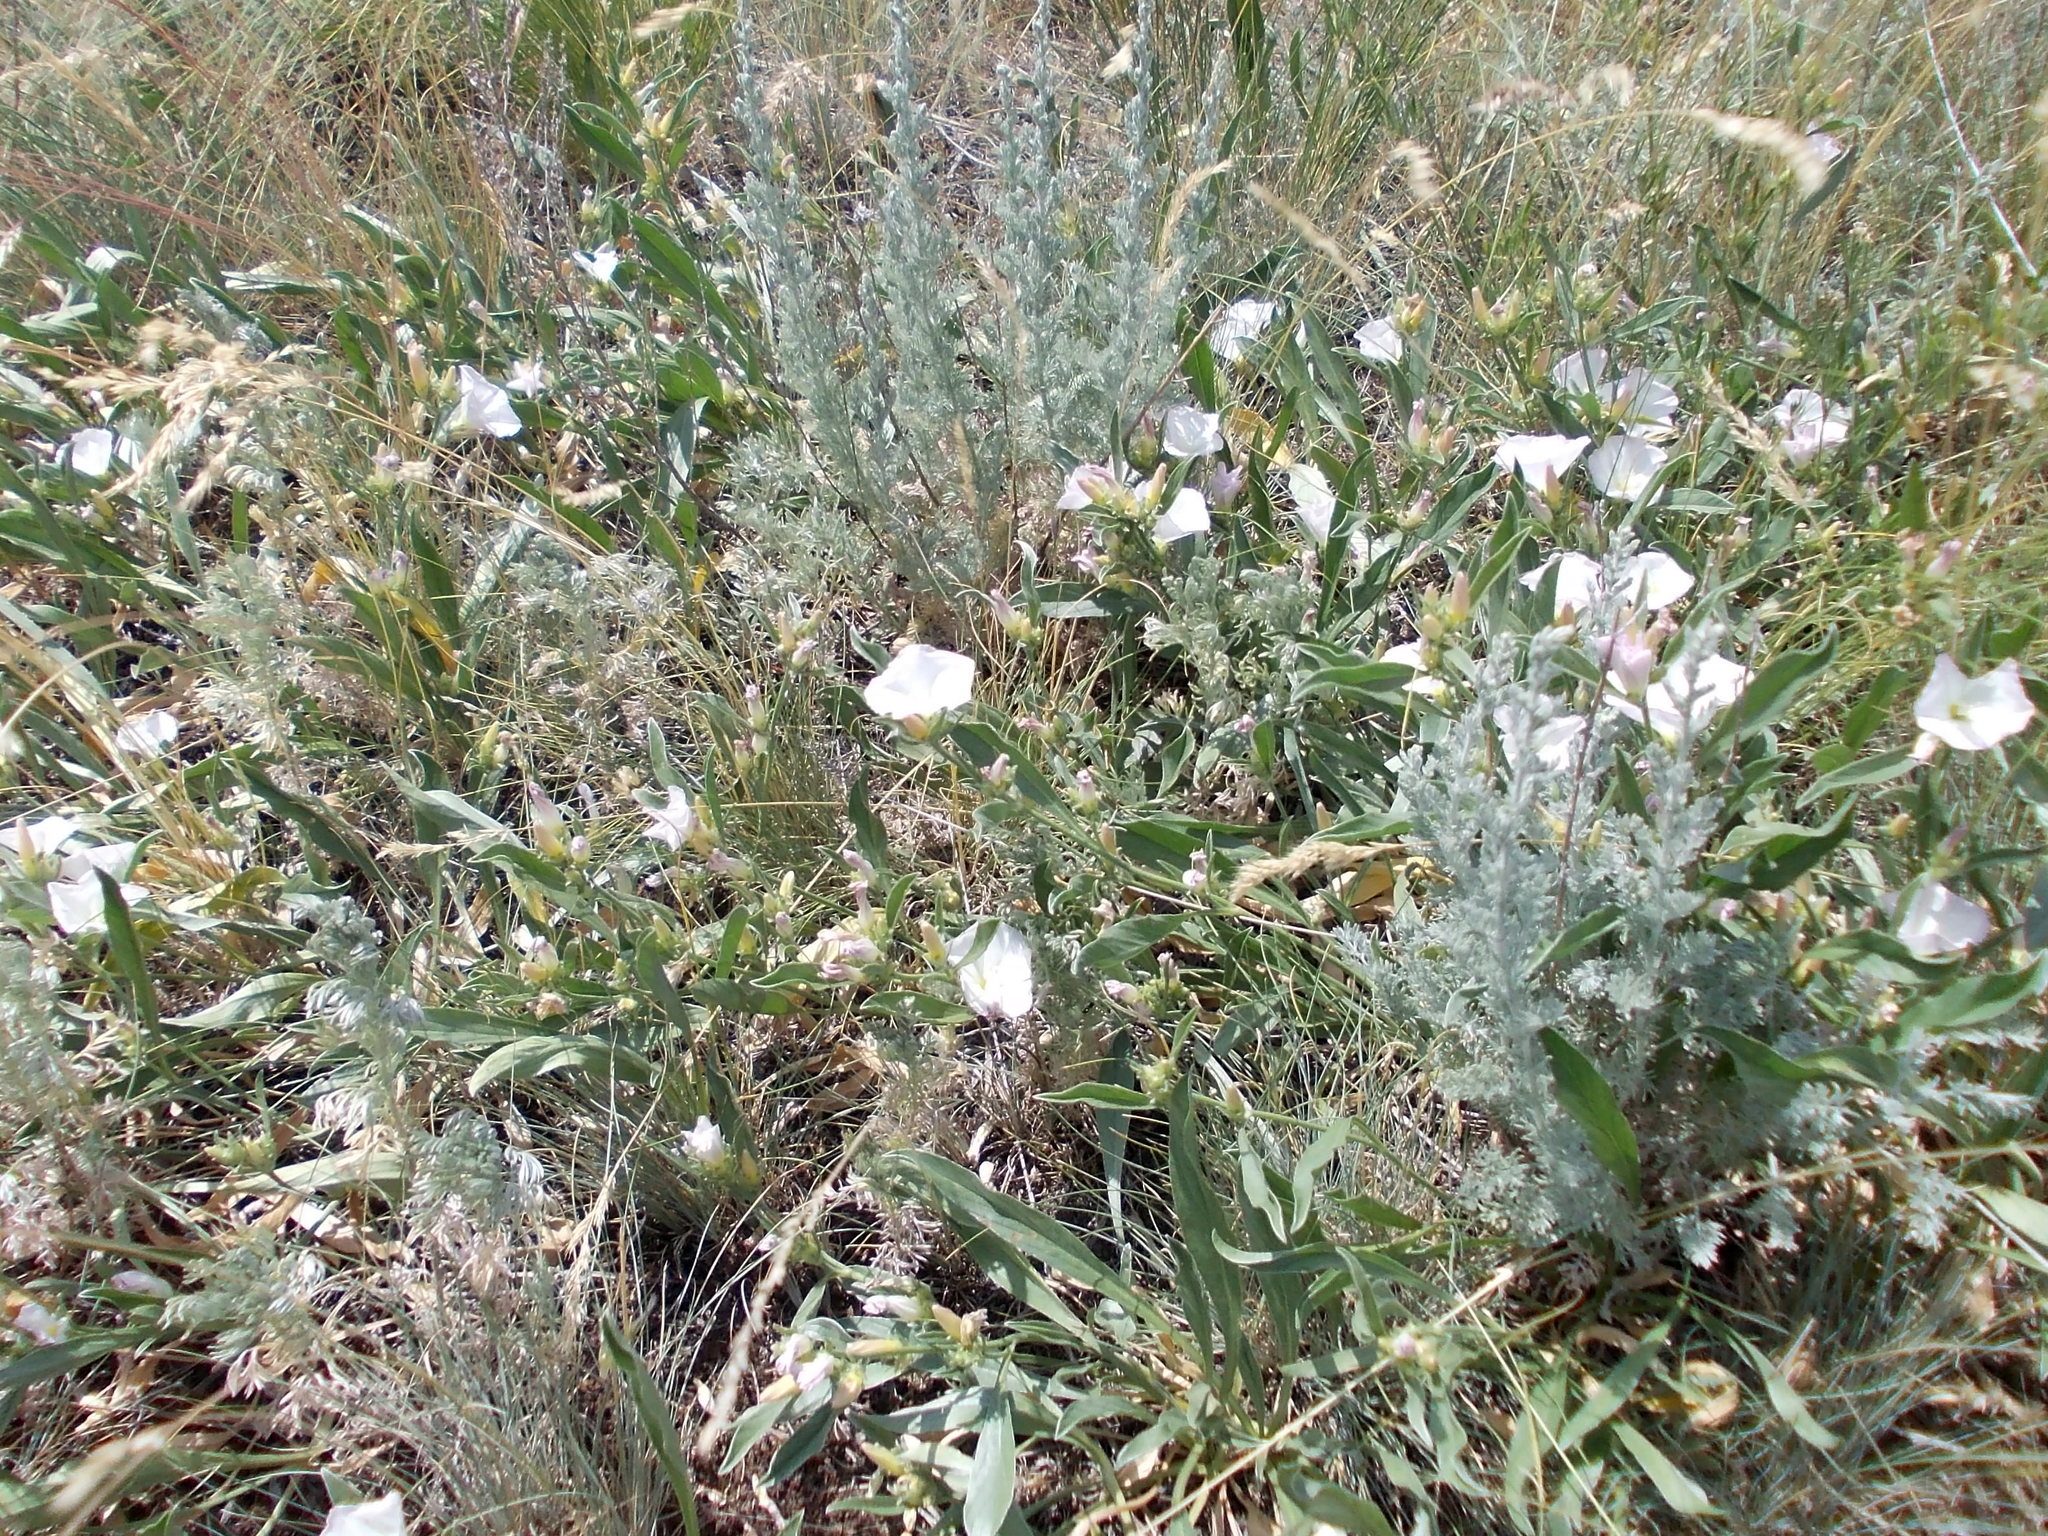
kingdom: Plantae
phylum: Tracheophyta
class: Magnoliopsida
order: Solanales
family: Convolvulaceae
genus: Convolvulus
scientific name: Convolvulus lineatus
